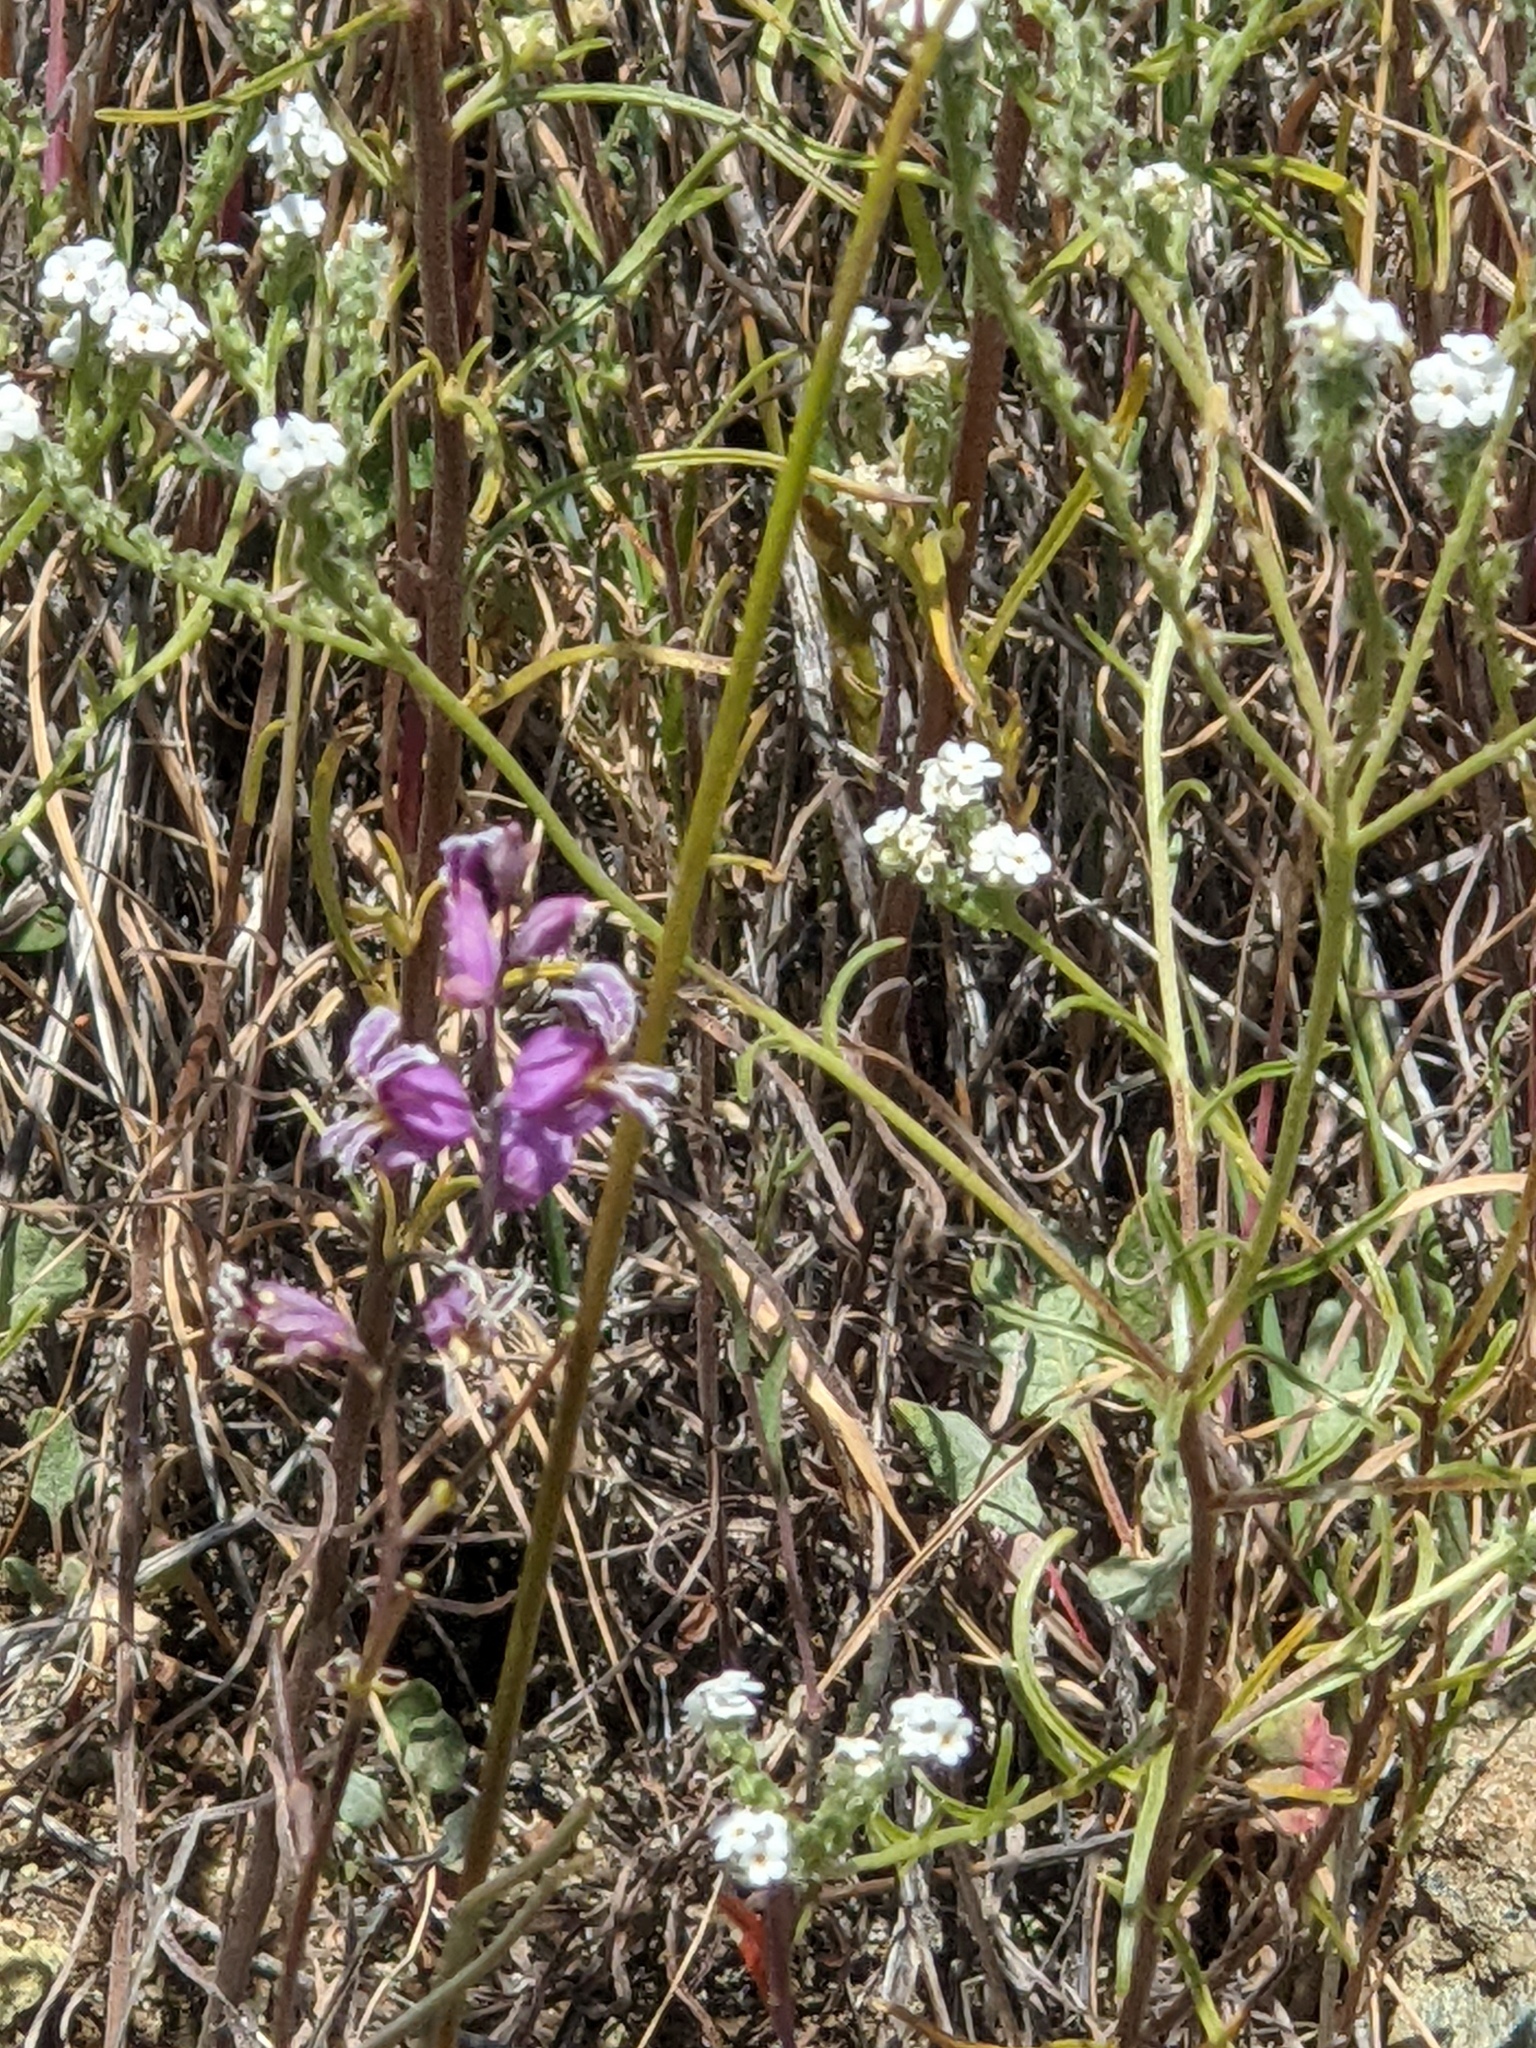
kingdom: Plantae
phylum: Tracheophyta
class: Magnoliopsida
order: Brassicales
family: Brassicaceae
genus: Streptanthus
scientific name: Streptanthus glandulosus
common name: Jewel-flower
